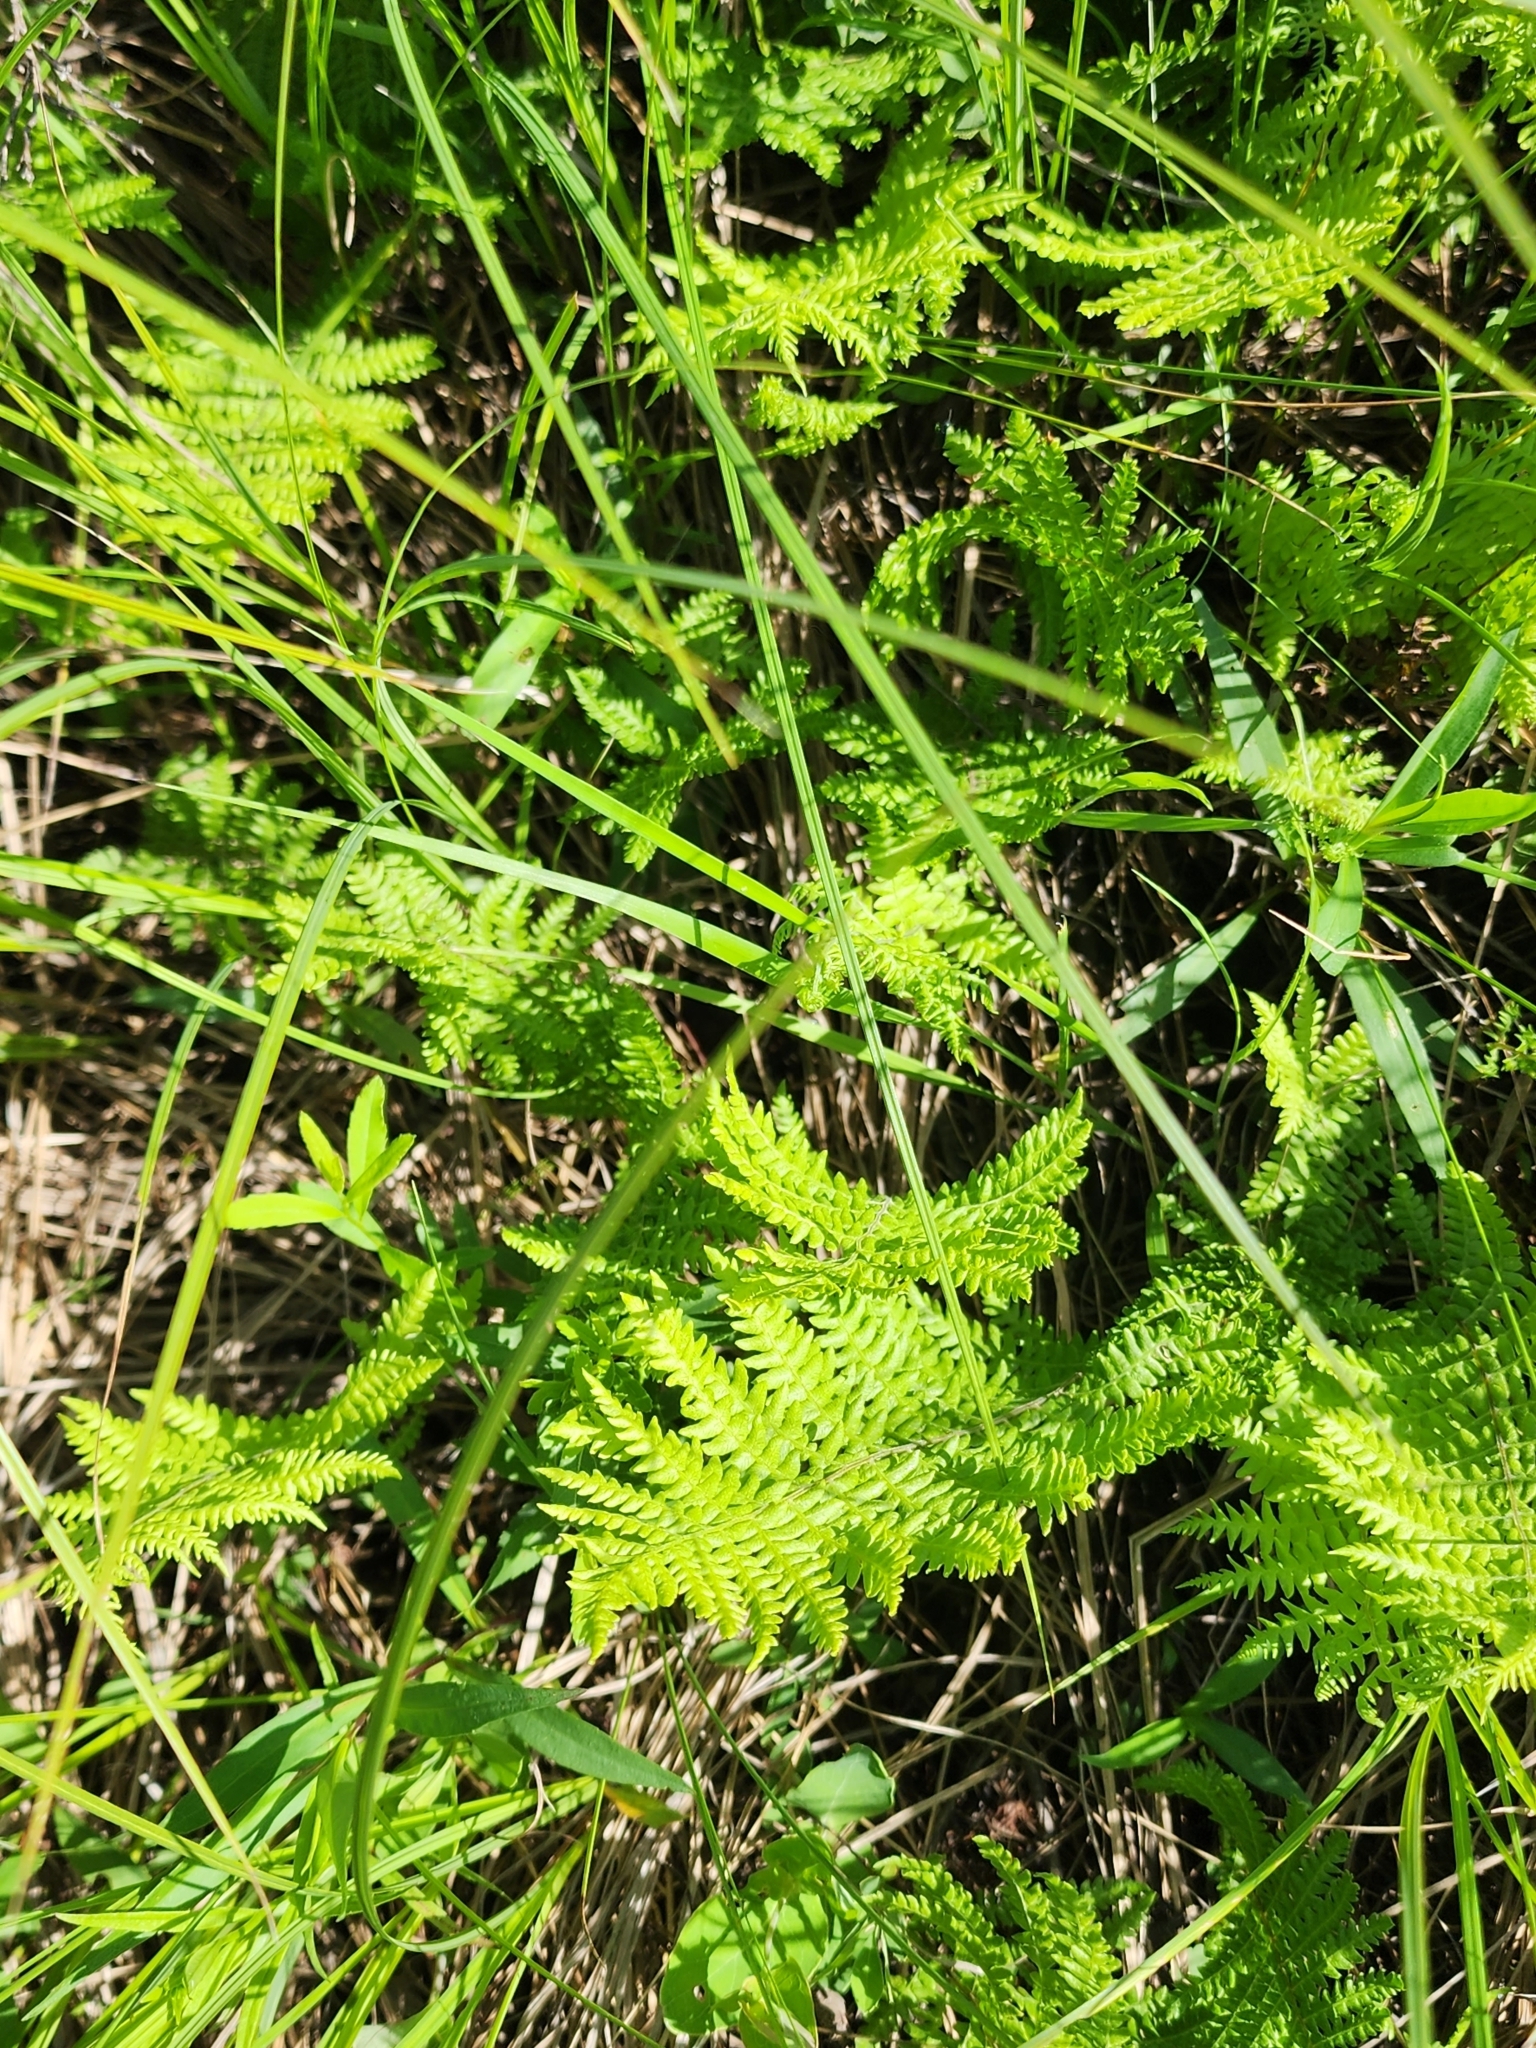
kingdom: Plantae
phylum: Tracheophyta
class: Polypodiopsida
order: Polypodiales
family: Thelypteridaceae
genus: Thelypteris
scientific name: Thelypteris palustris
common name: Marsh fern
